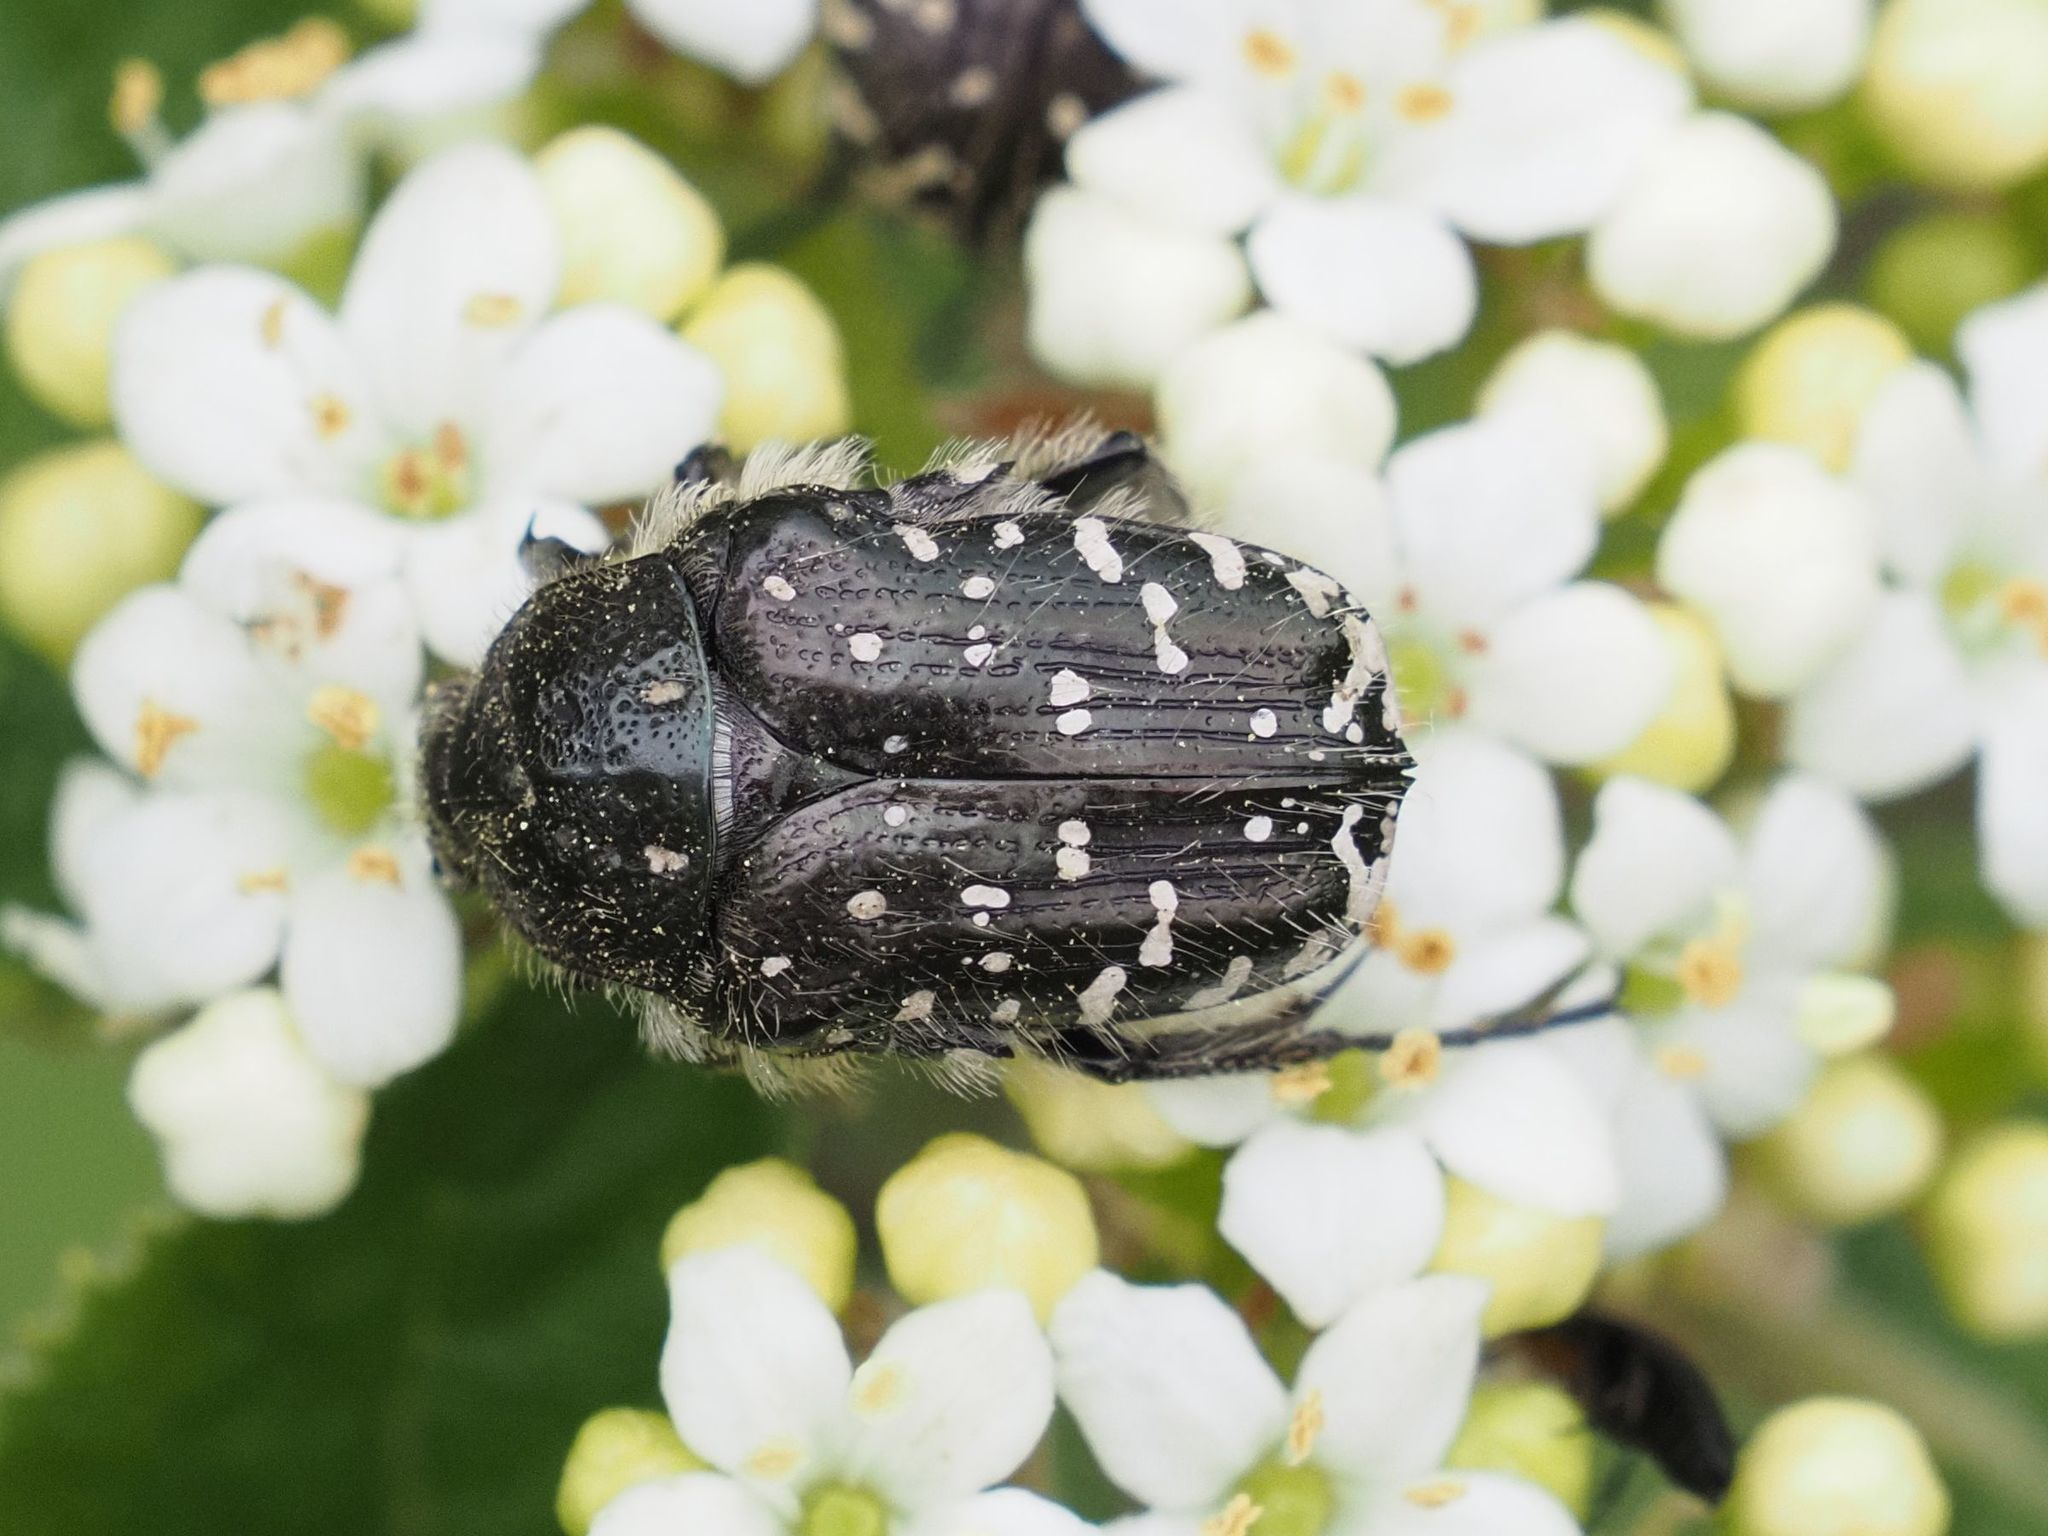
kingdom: Animalia
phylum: Arthropoda
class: Insecta
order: Coleoptera
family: Scarabaeidae
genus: Oxythyrea
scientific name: Oxythyrea funesta
